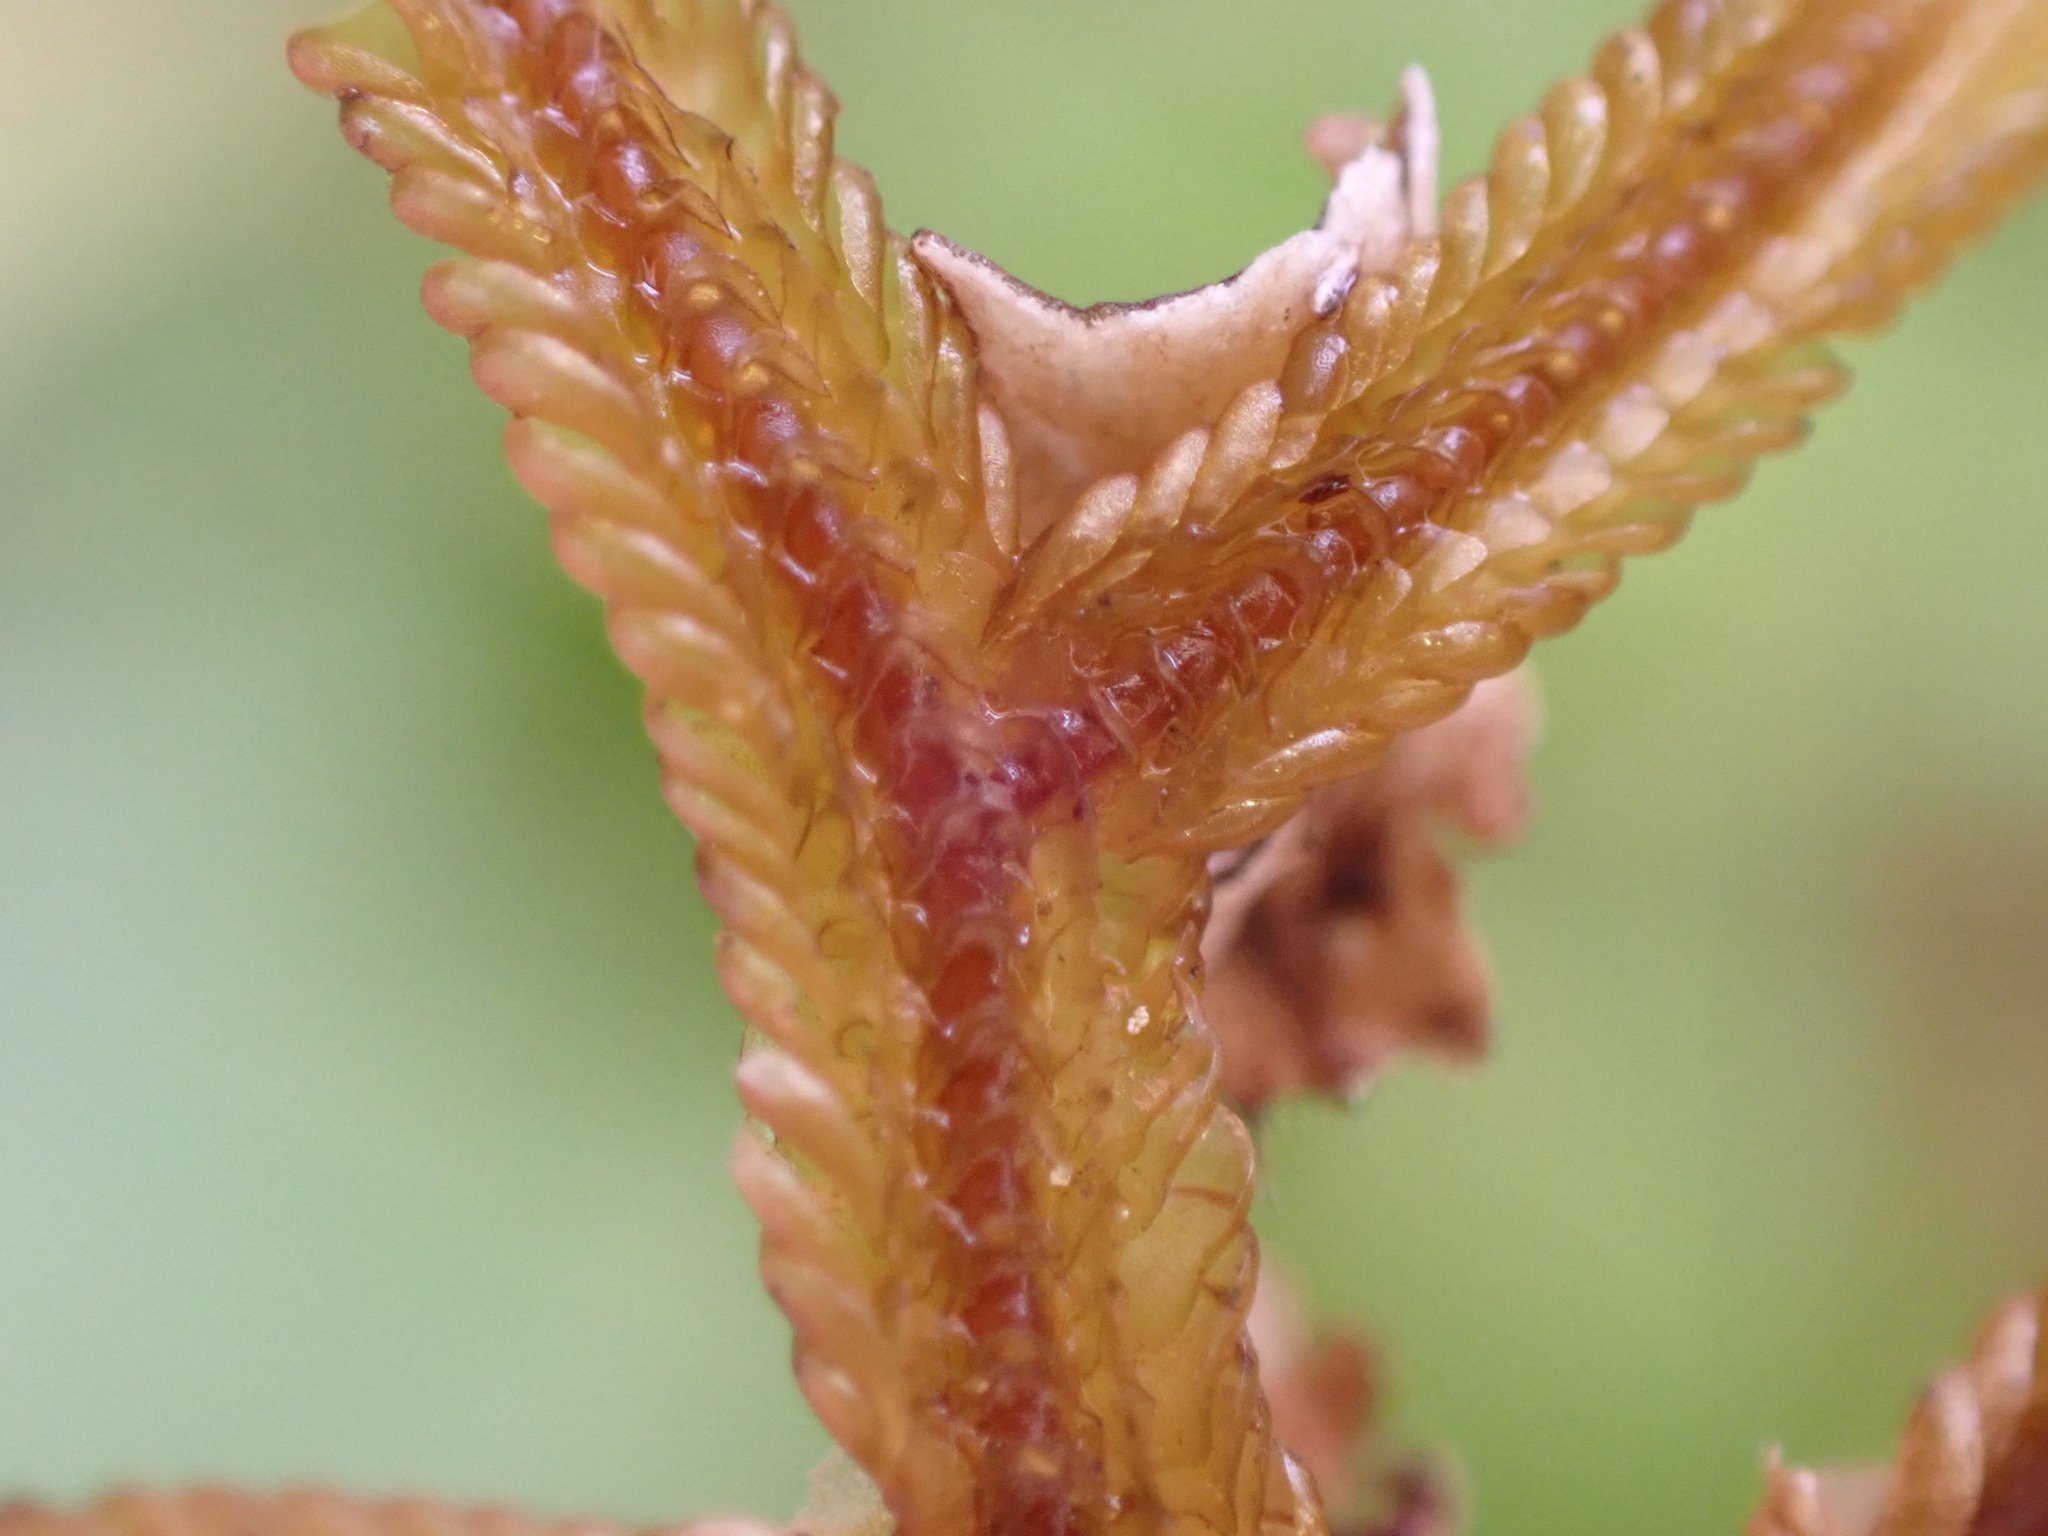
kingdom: Plantae
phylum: Marchantiophyta
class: Jungermanniopsida
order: Porellales
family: Porellaceae
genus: Porella
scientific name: Porella elegantula
